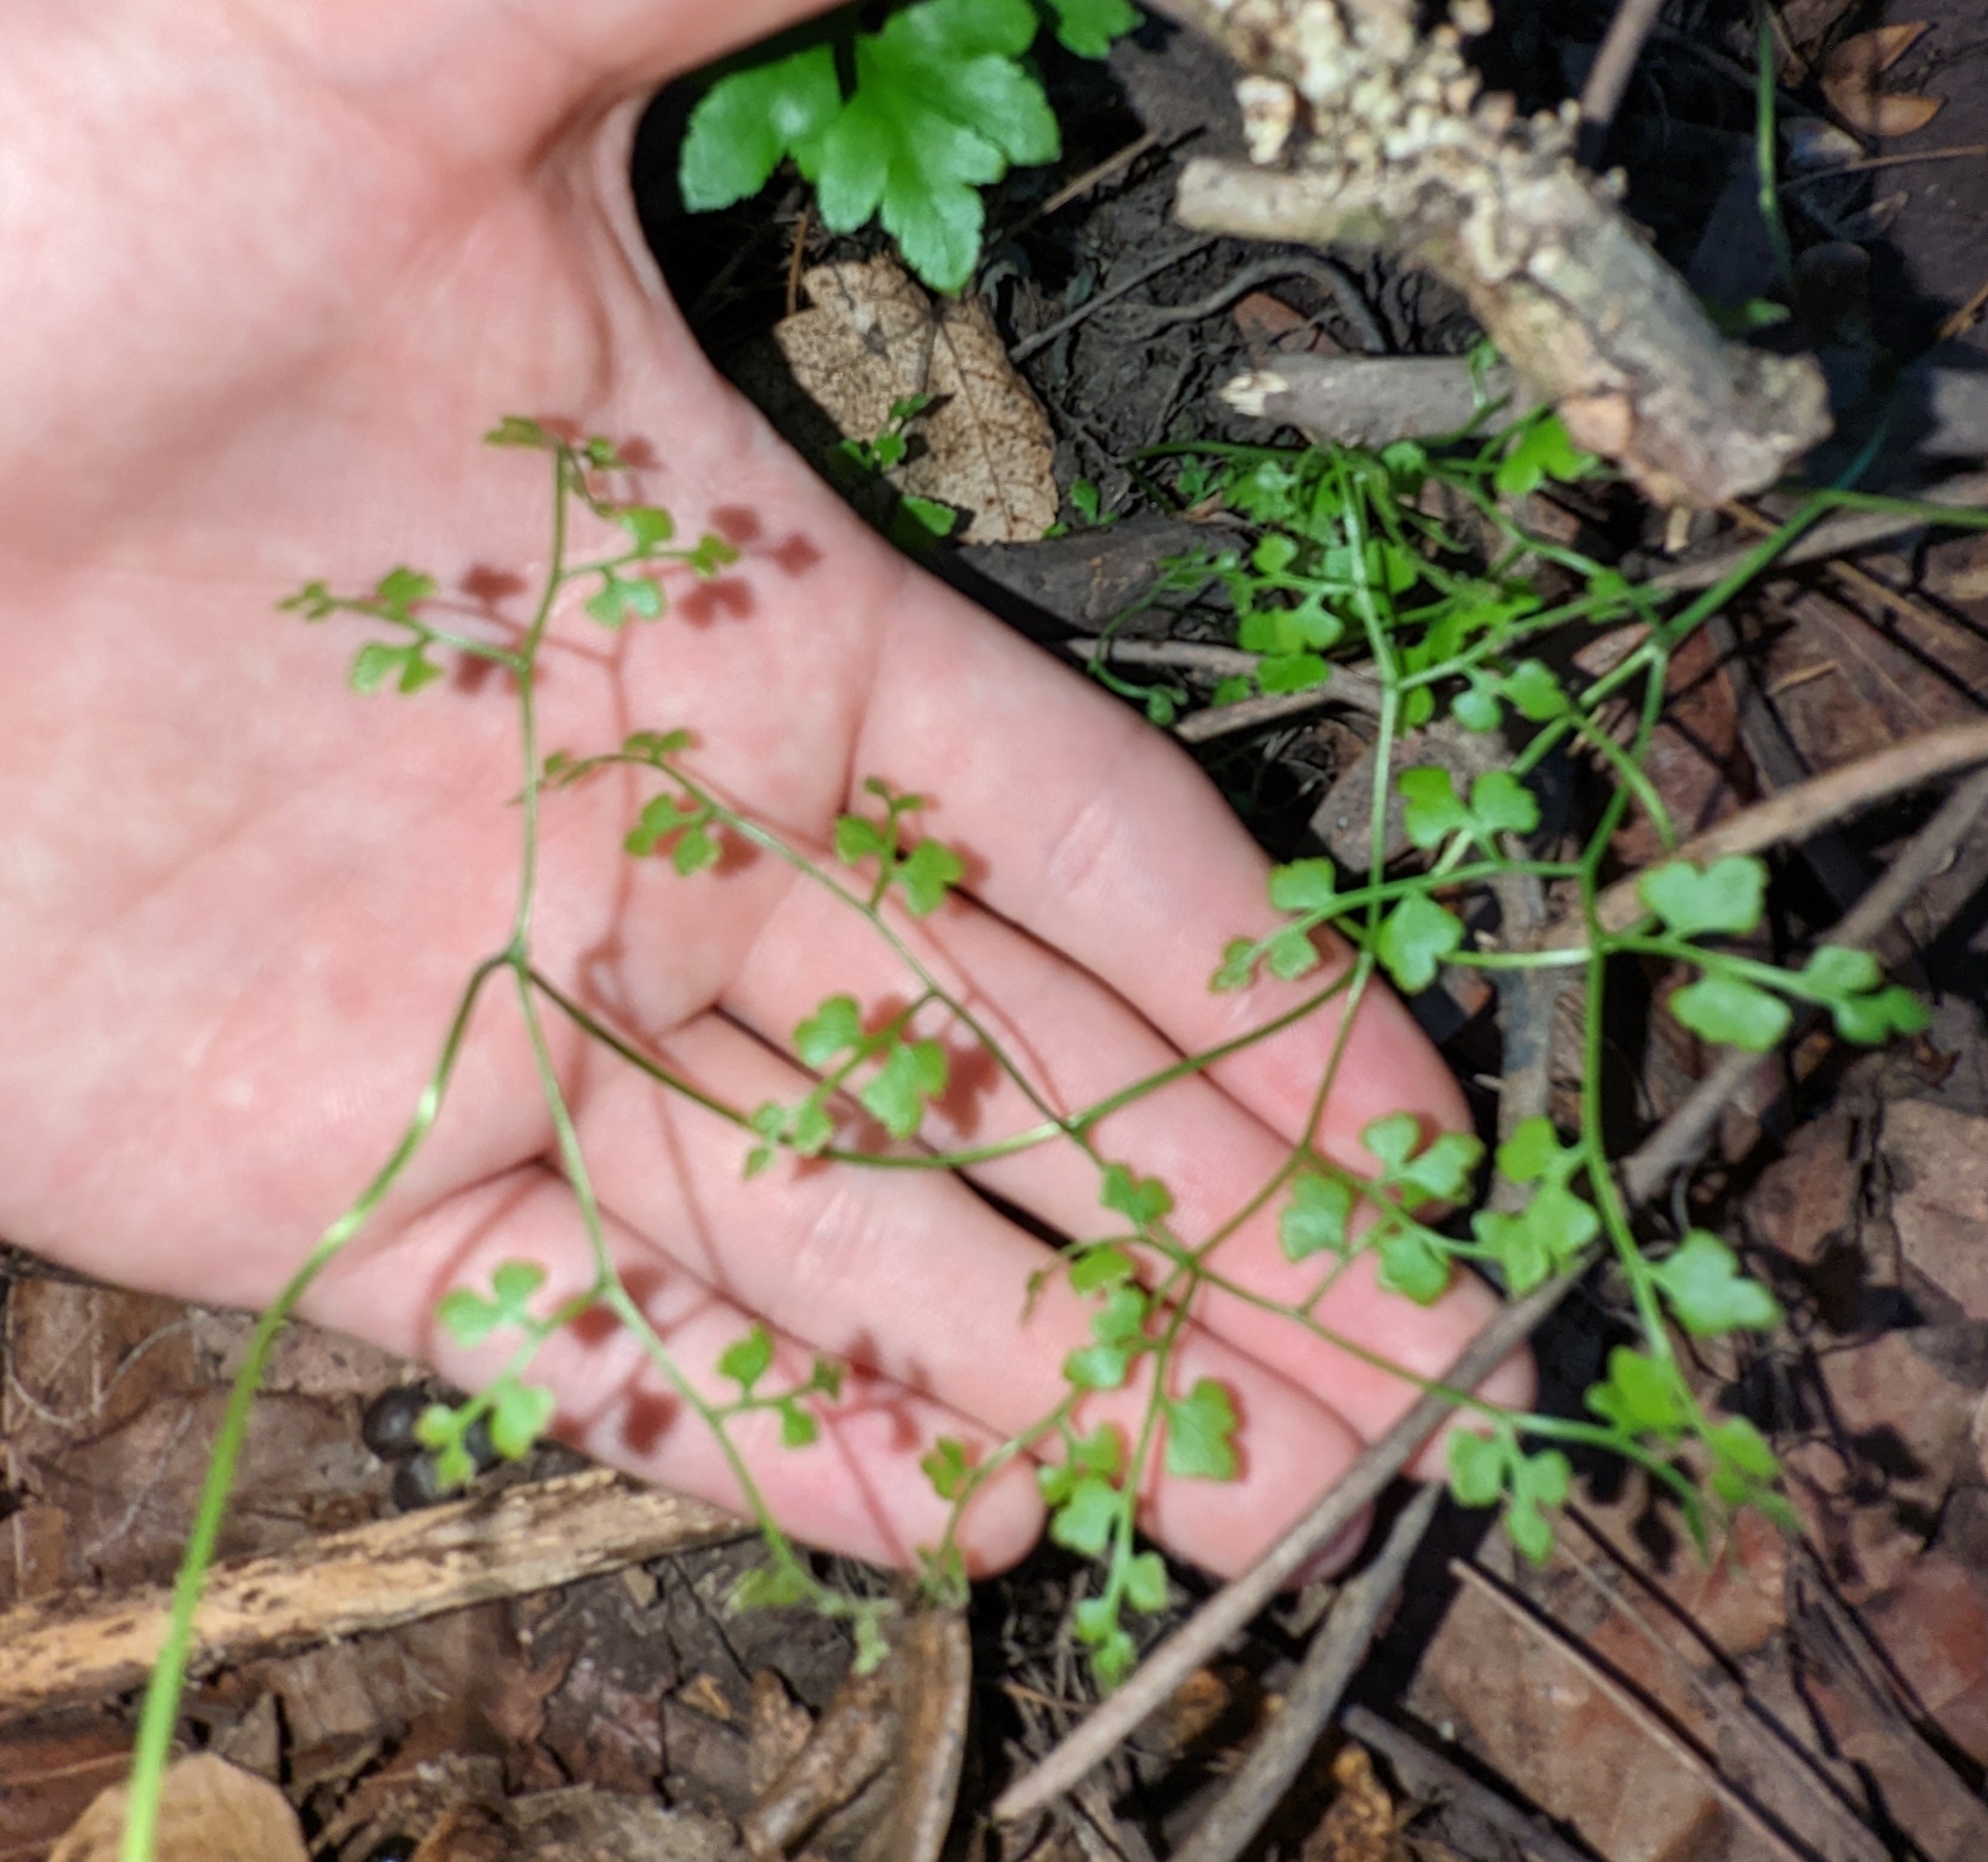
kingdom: Plantae
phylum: Tracheophyta
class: Polypodiopsida
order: Schizaeales
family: Lygodiaceae
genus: Lygodium
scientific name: Lygodium japonicum
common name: Japanese climbing fern
